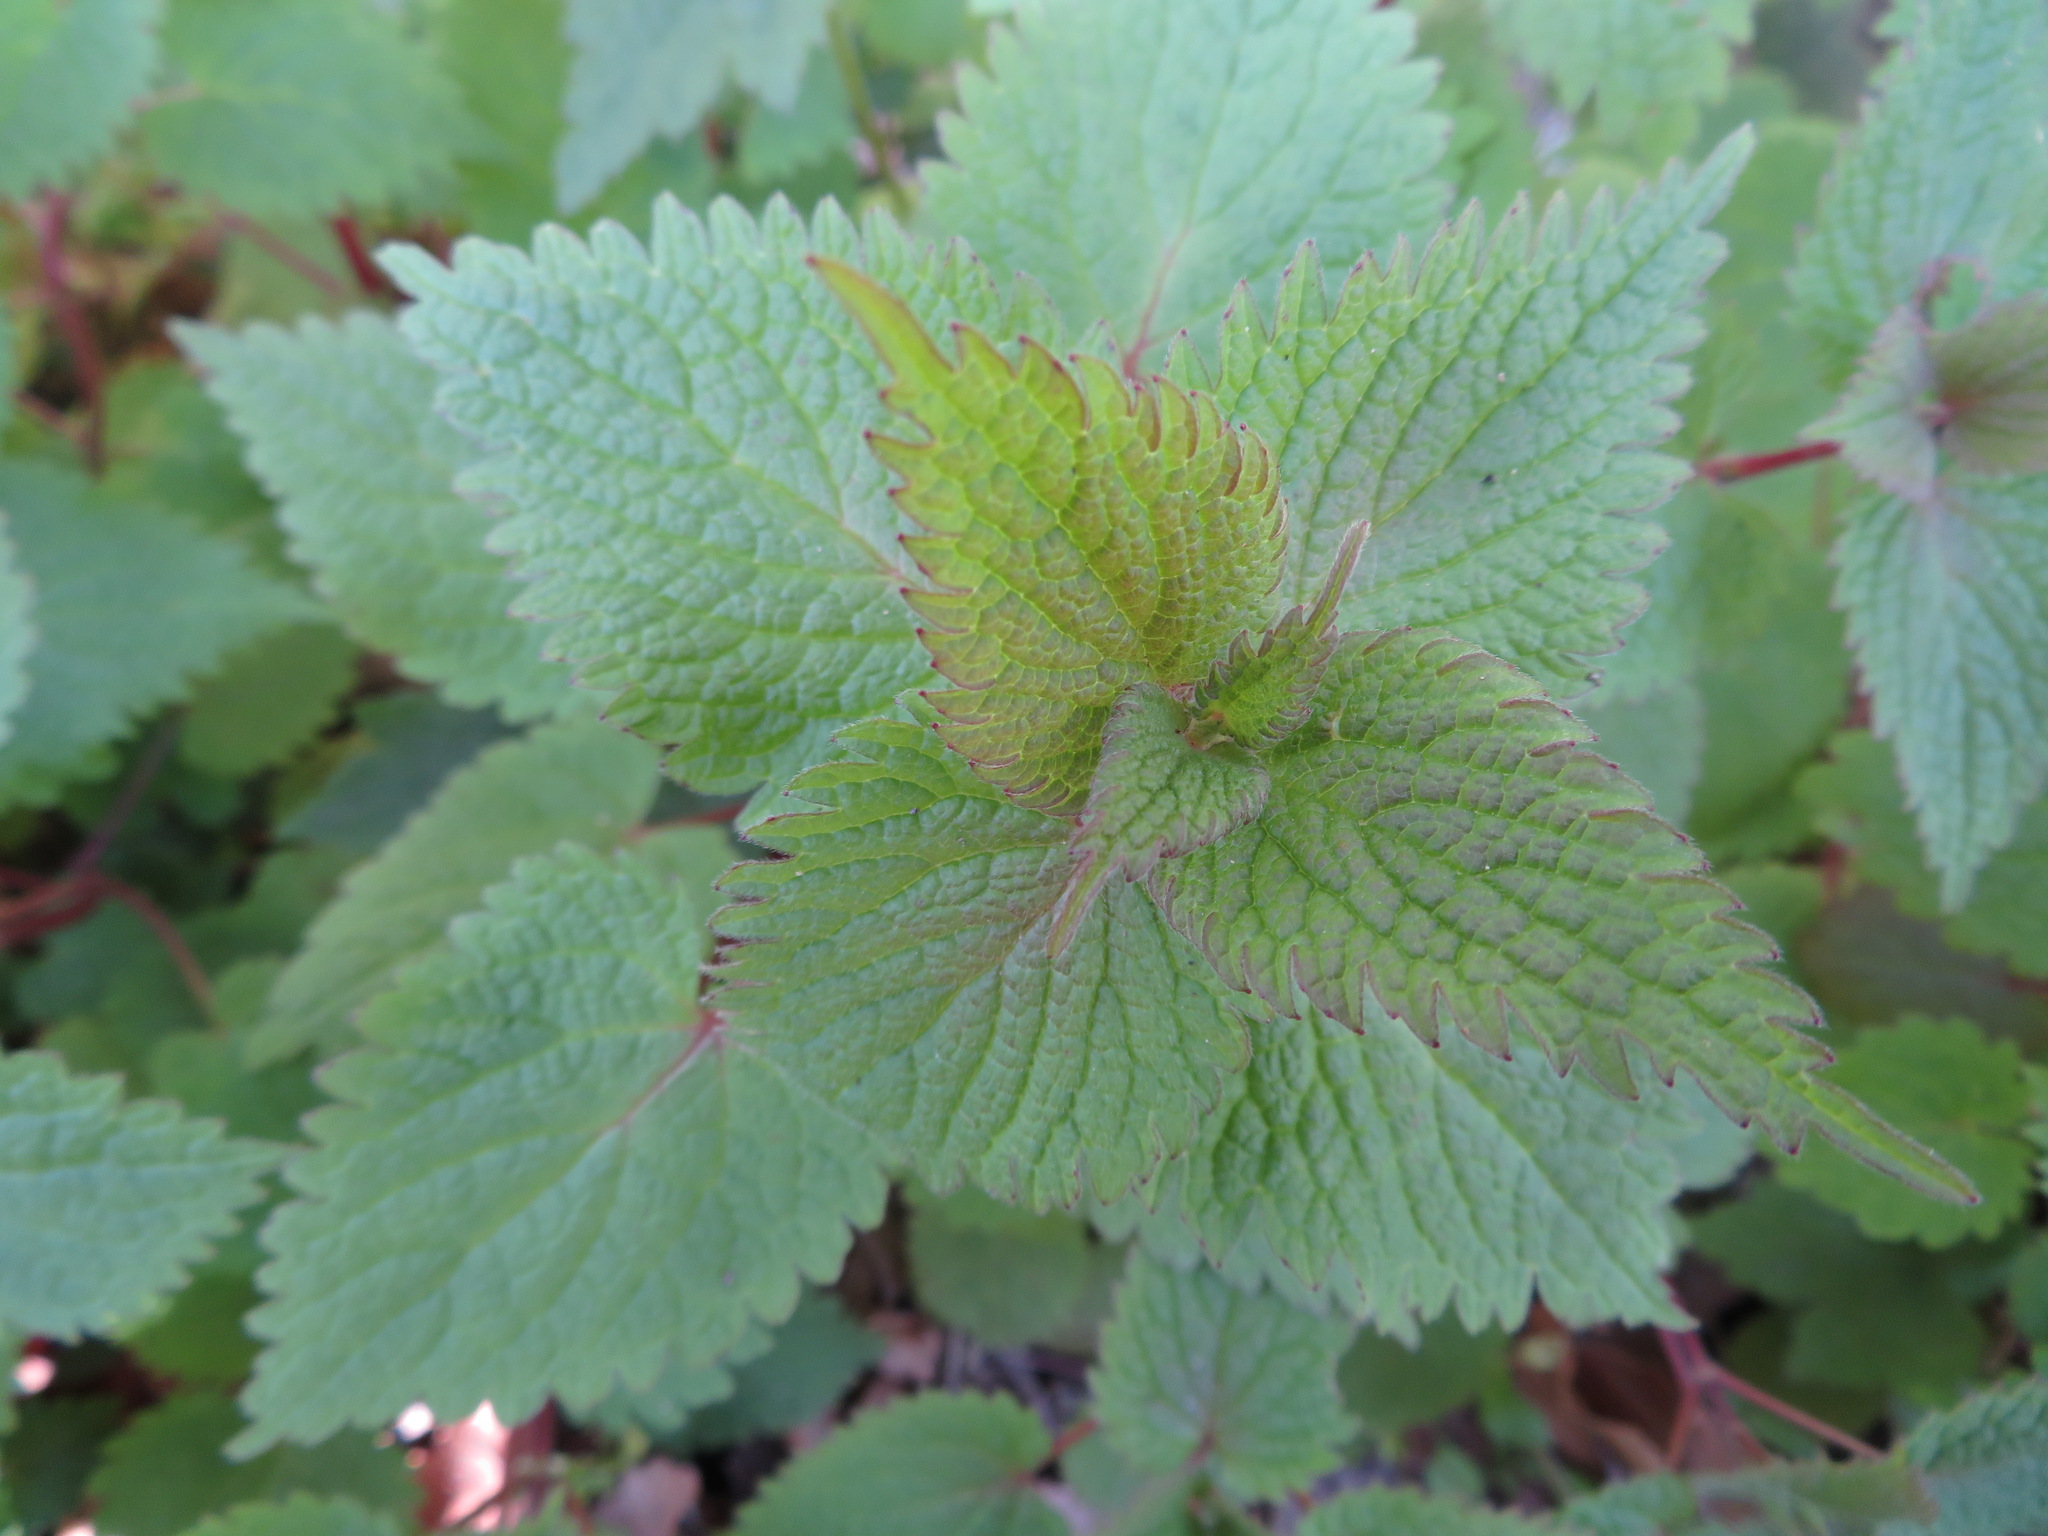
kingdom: Plantae
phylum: Tracheophyta
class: Magnoliopsida
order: Lamiales
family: Lamiaceae
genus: Lamium
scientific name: Lamium album
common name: White dead-nettle
